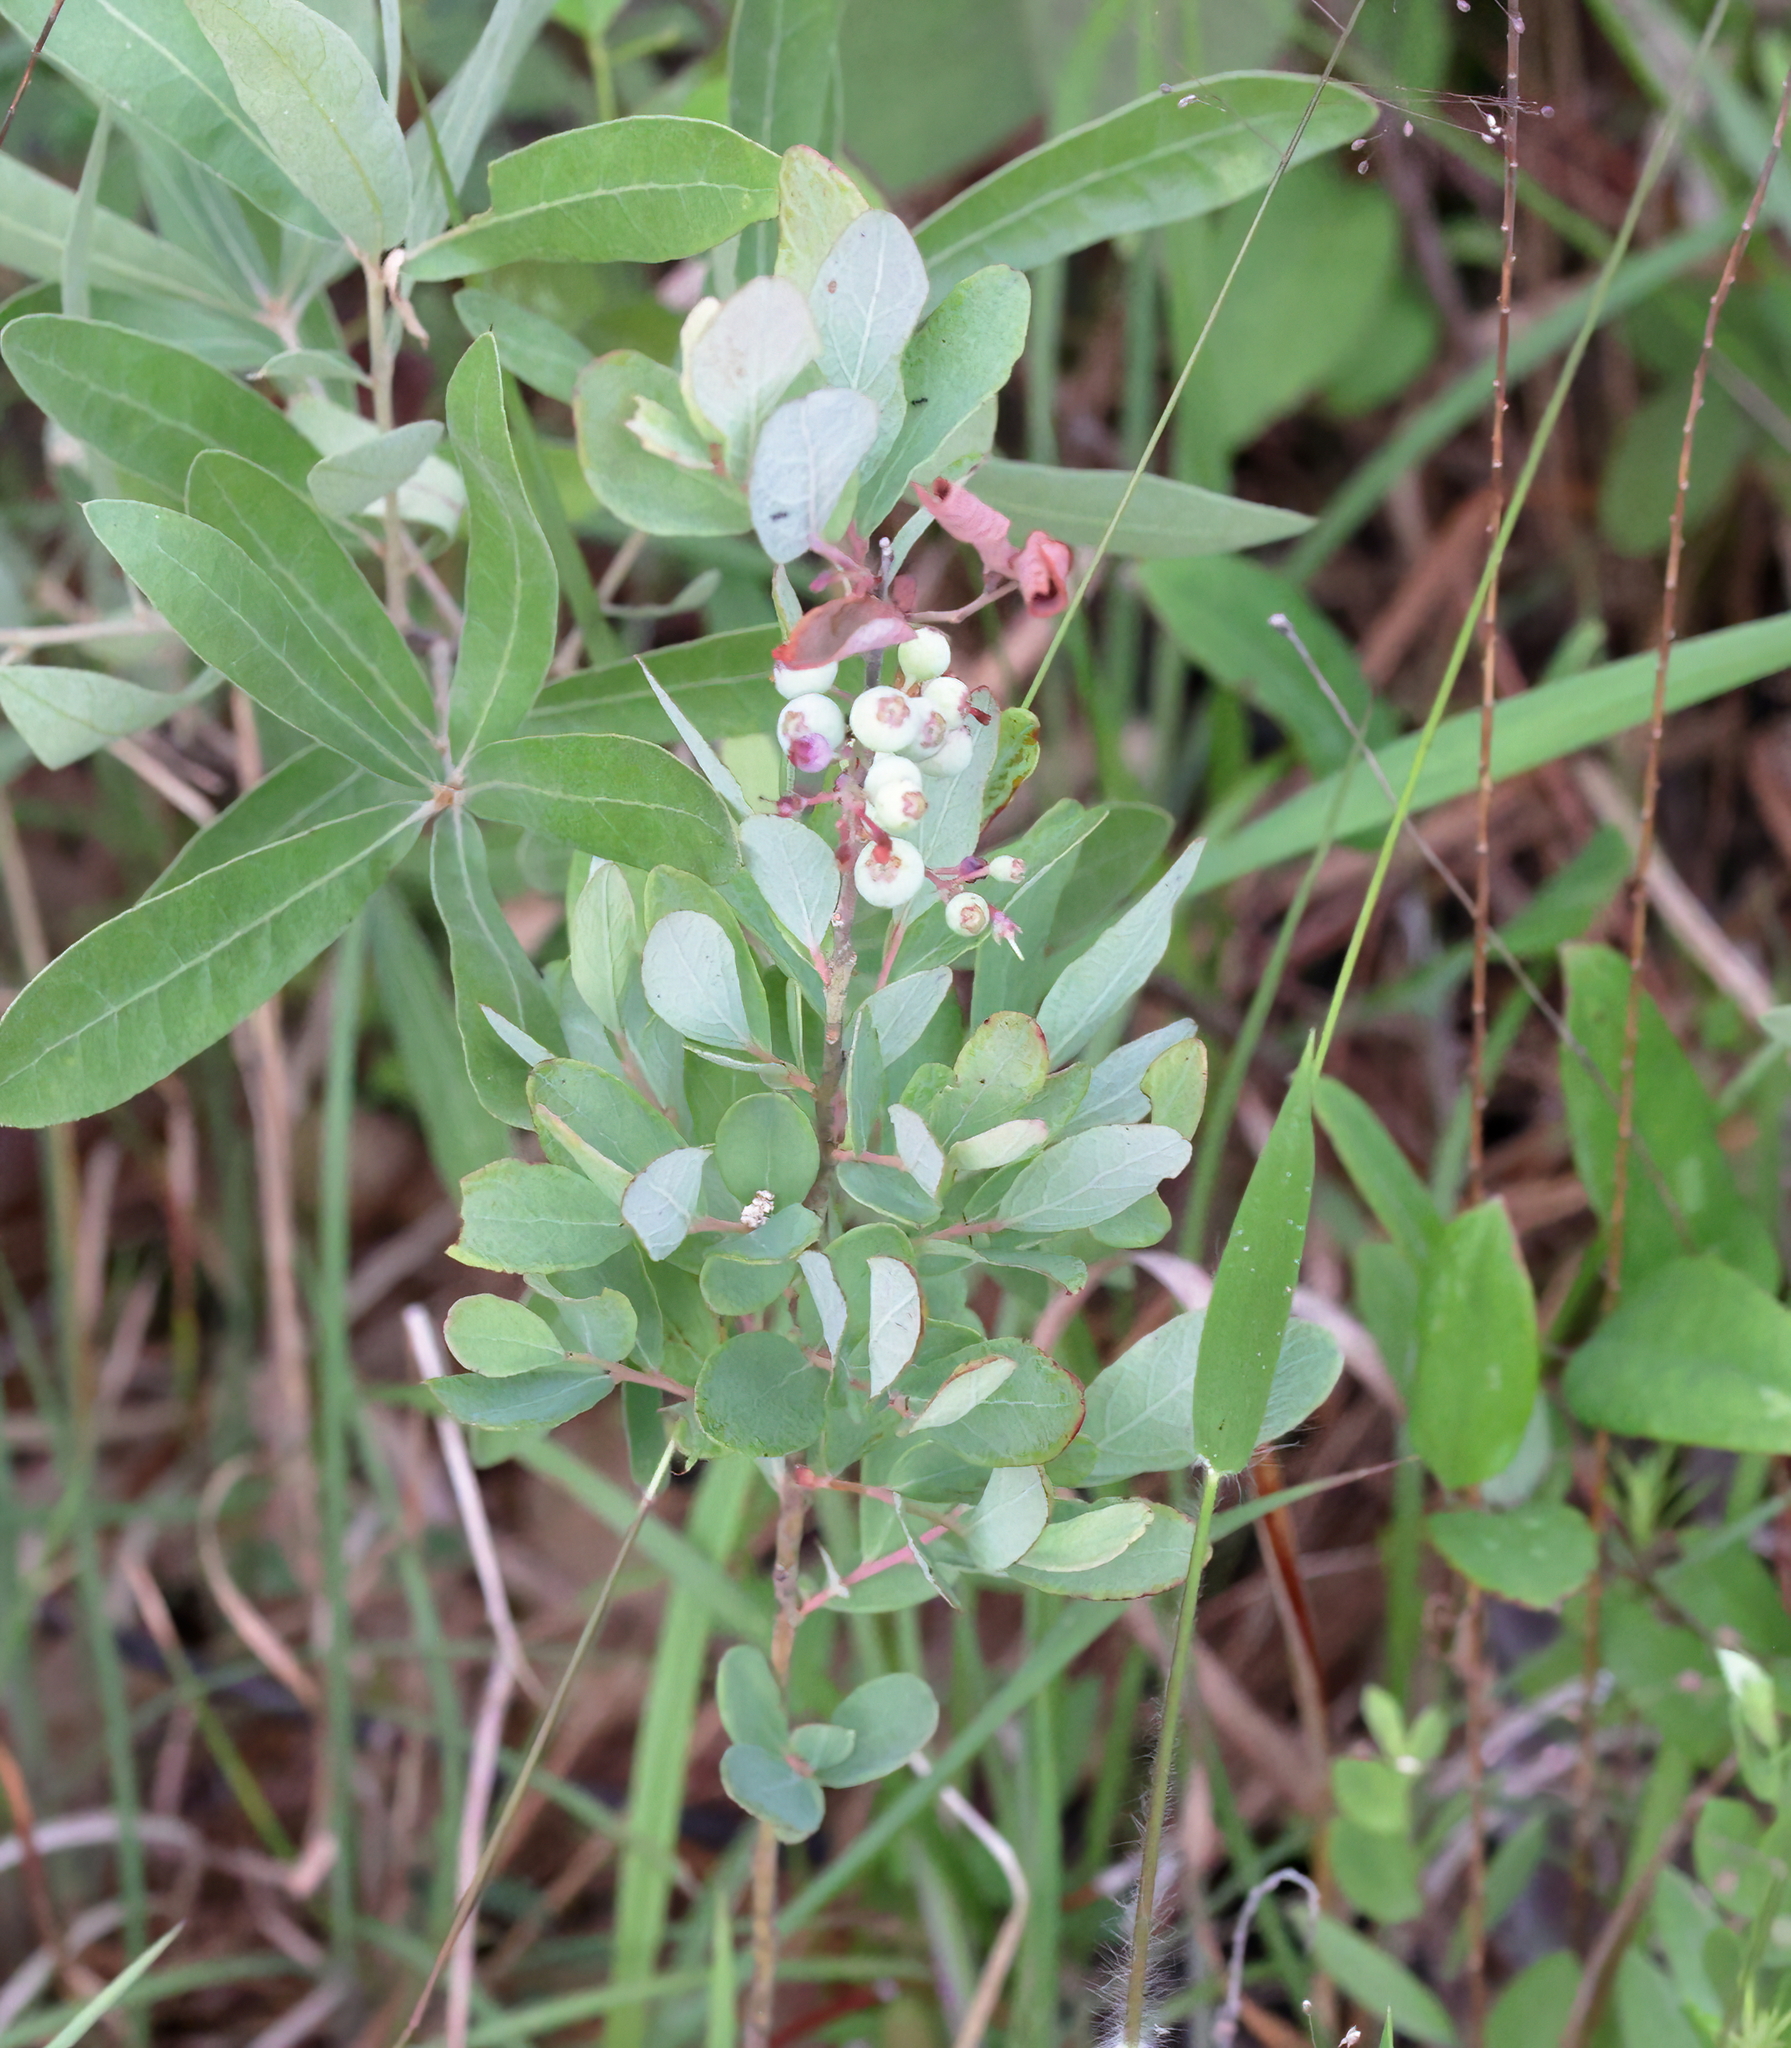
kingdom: Plantae
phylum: Tracheophyta
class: Magnoliopsida
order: Ericales
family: Ericaceae
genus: Gaylussacia
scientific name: Gaylussacia nana
